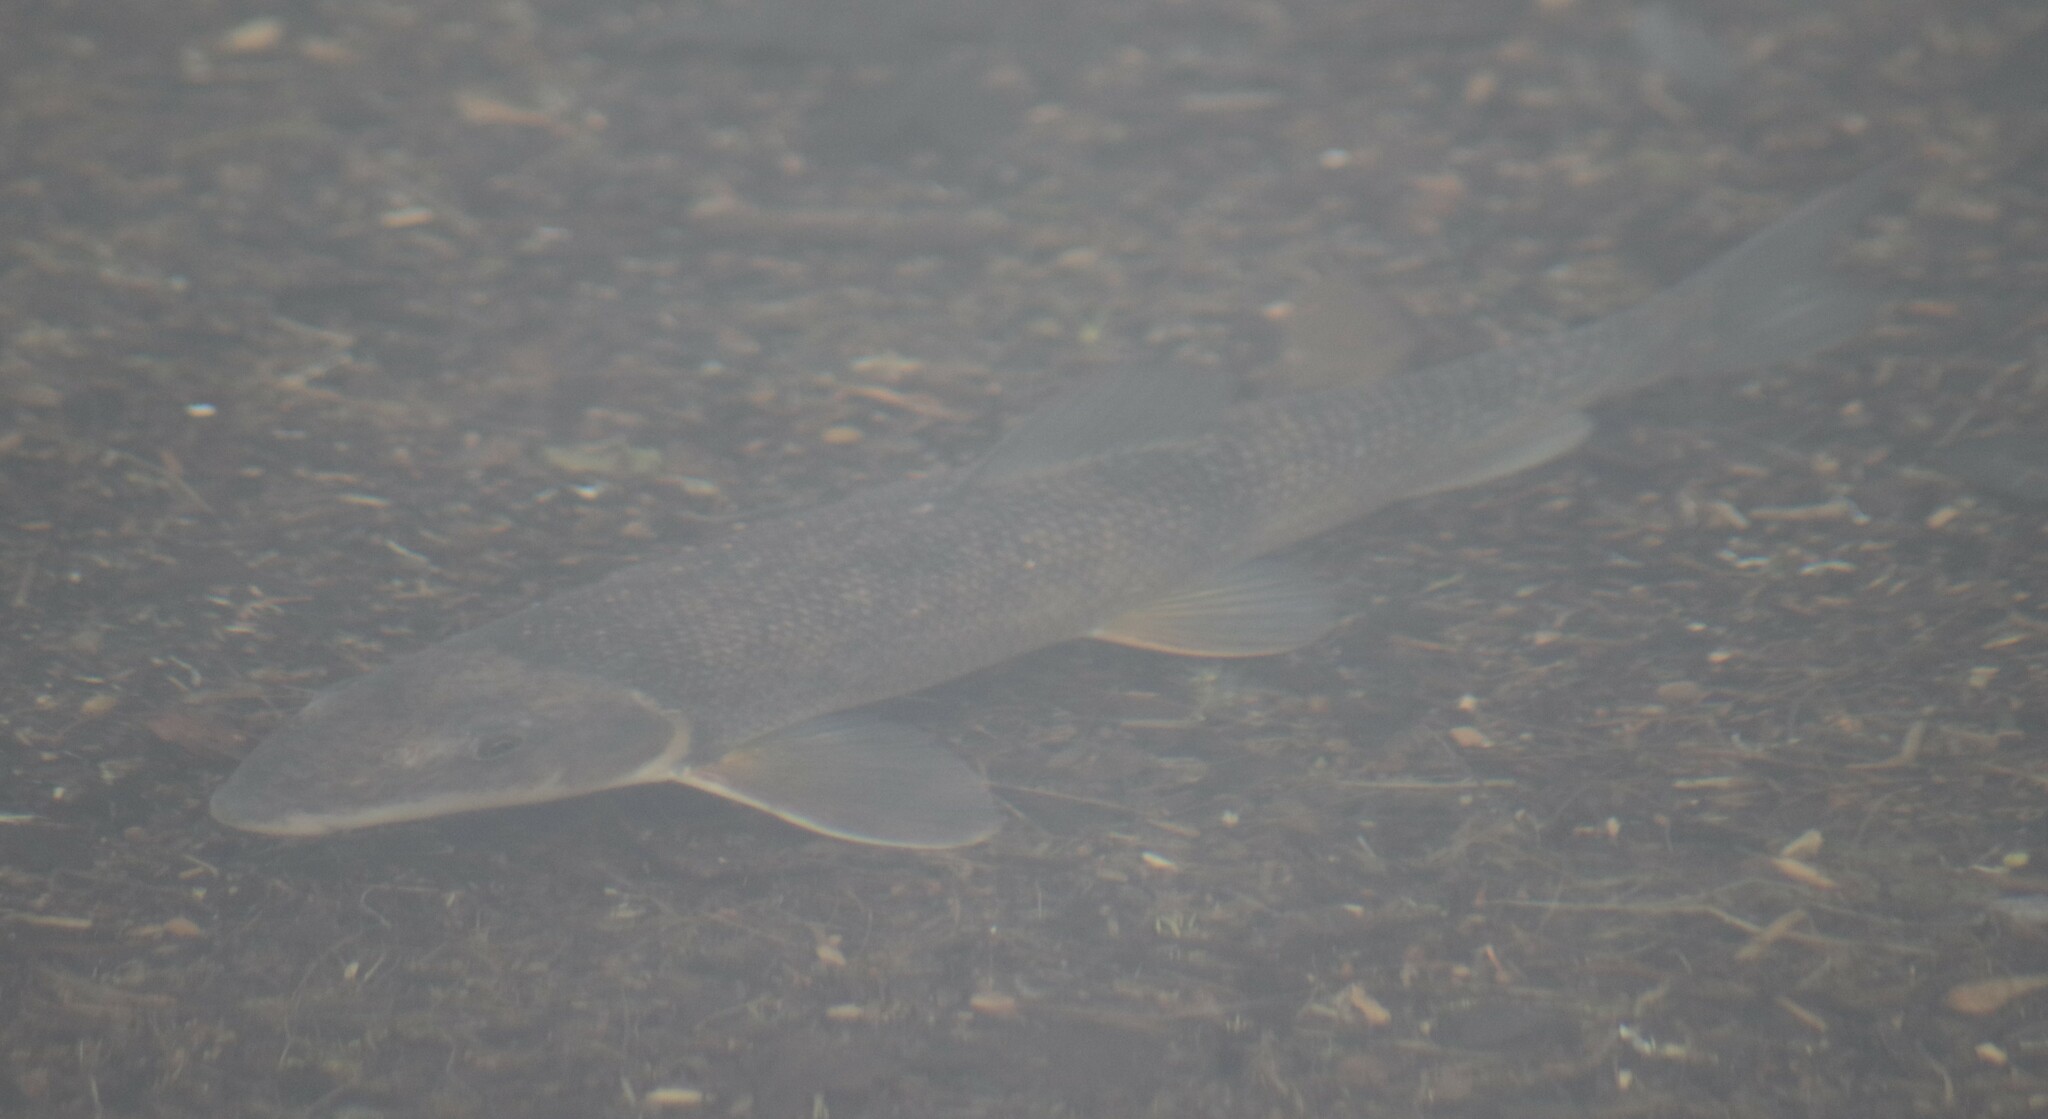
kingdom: Animalia
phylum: Chordata
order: Cypriniformes
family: Catostomidae
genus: Catostomus
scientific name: Catostomus commersonii
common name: White sucker
